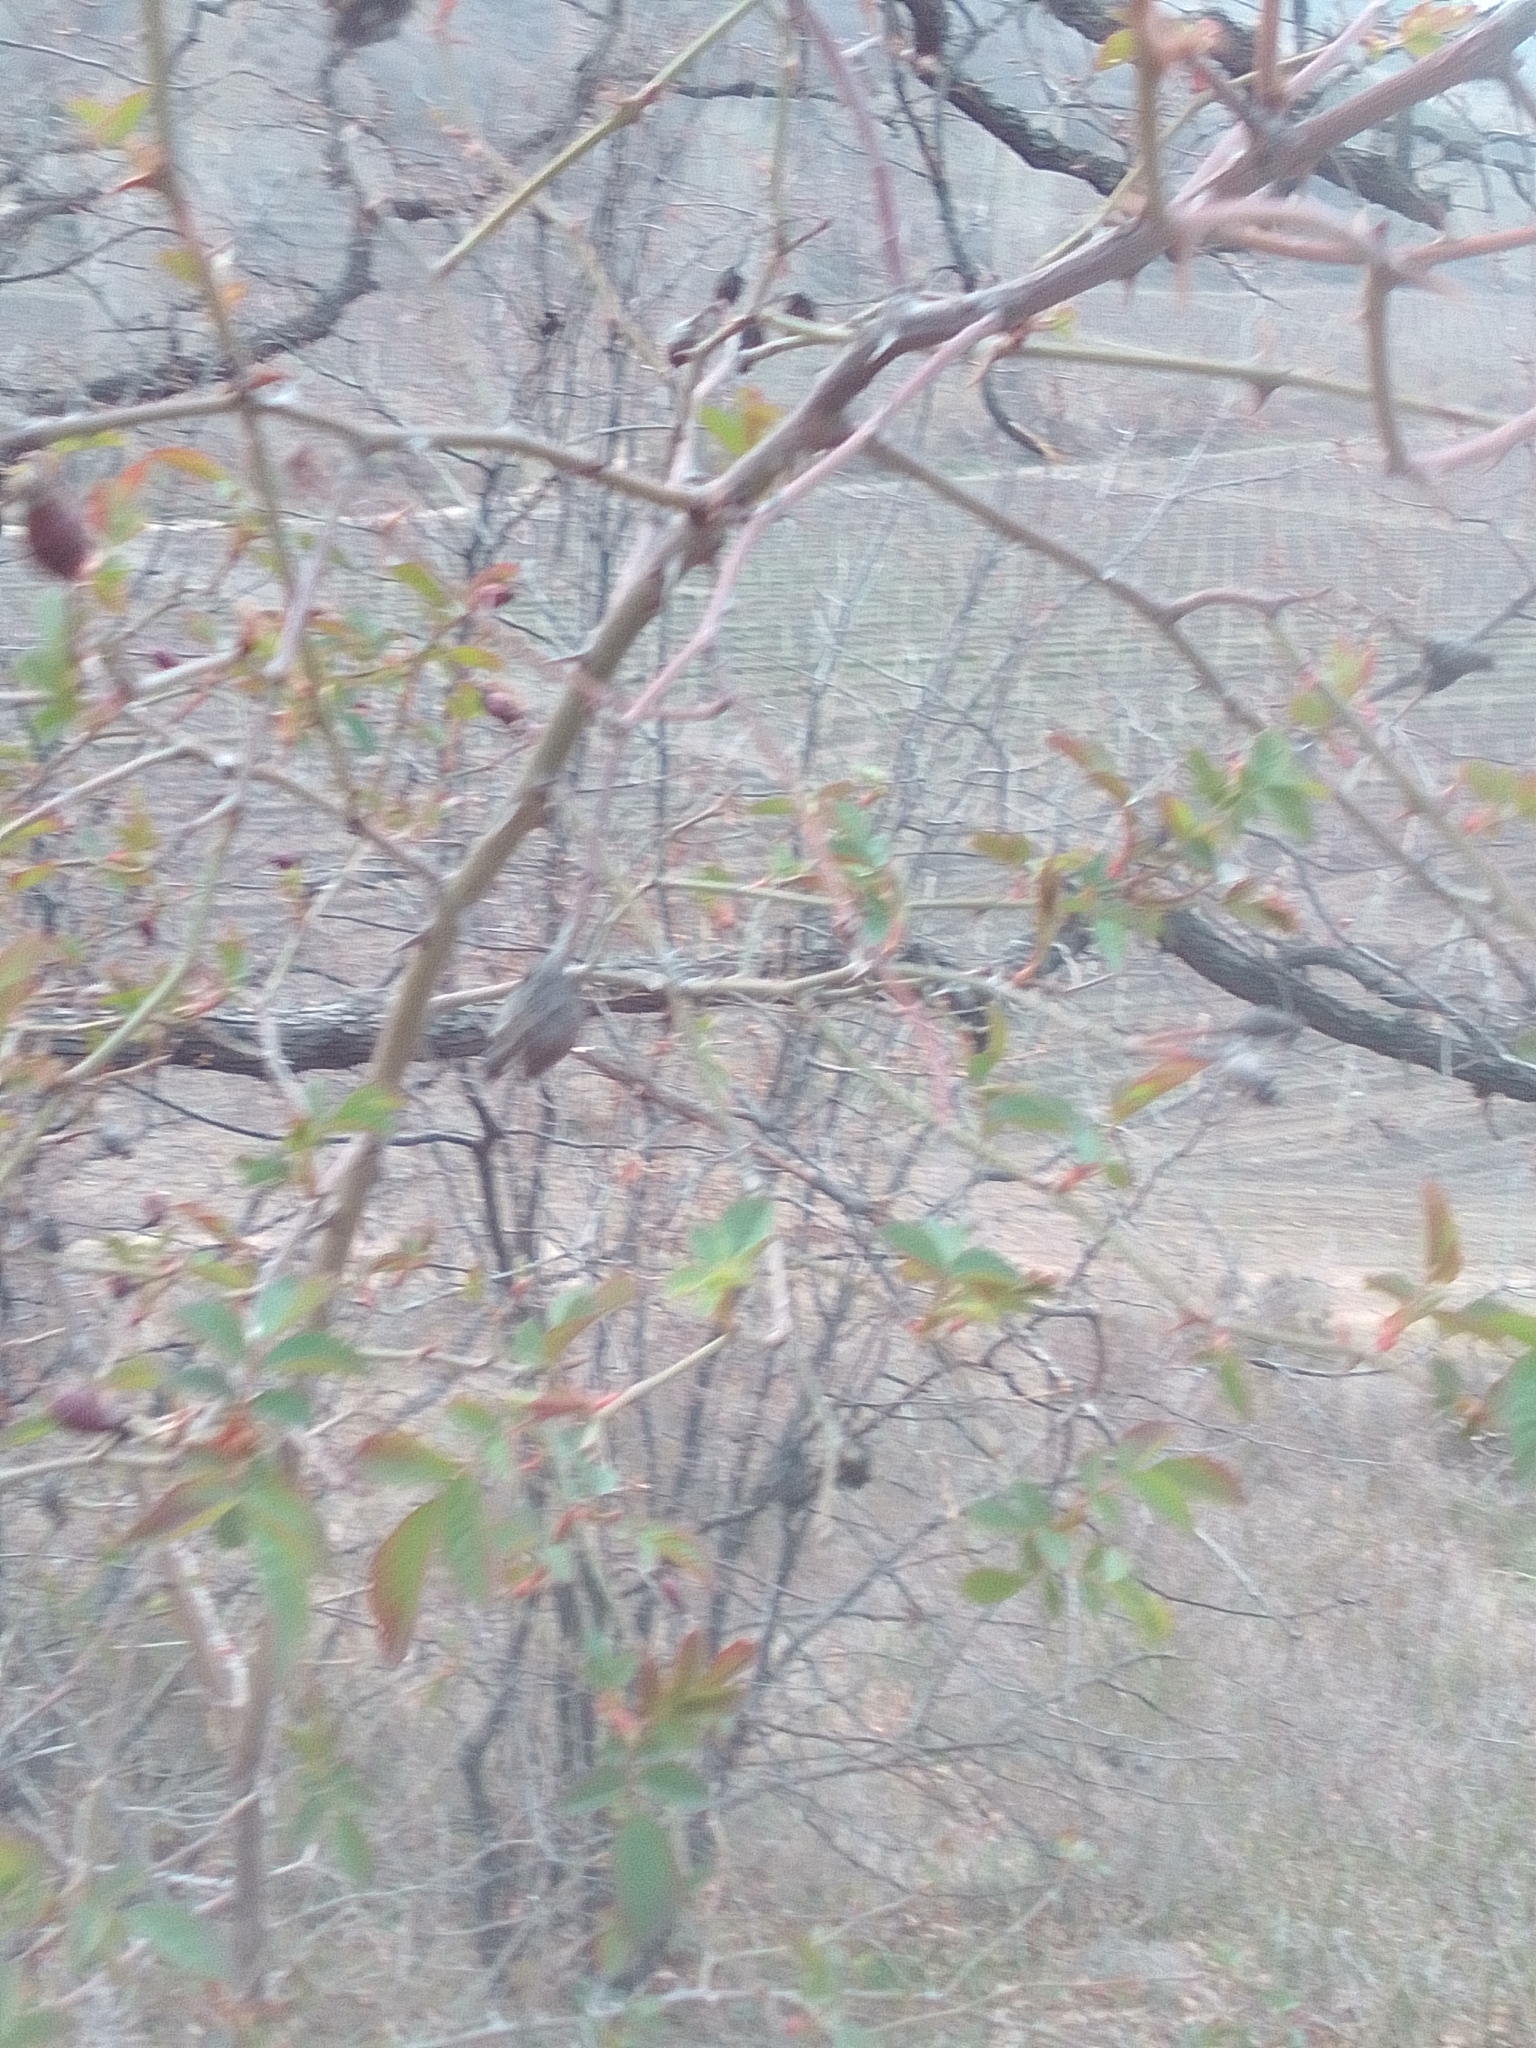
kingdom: Plantae
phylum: Tracheophyta
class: Magnoliopsida
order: Rosales
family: Rosaceae
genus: Rosa
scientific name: Rosa
